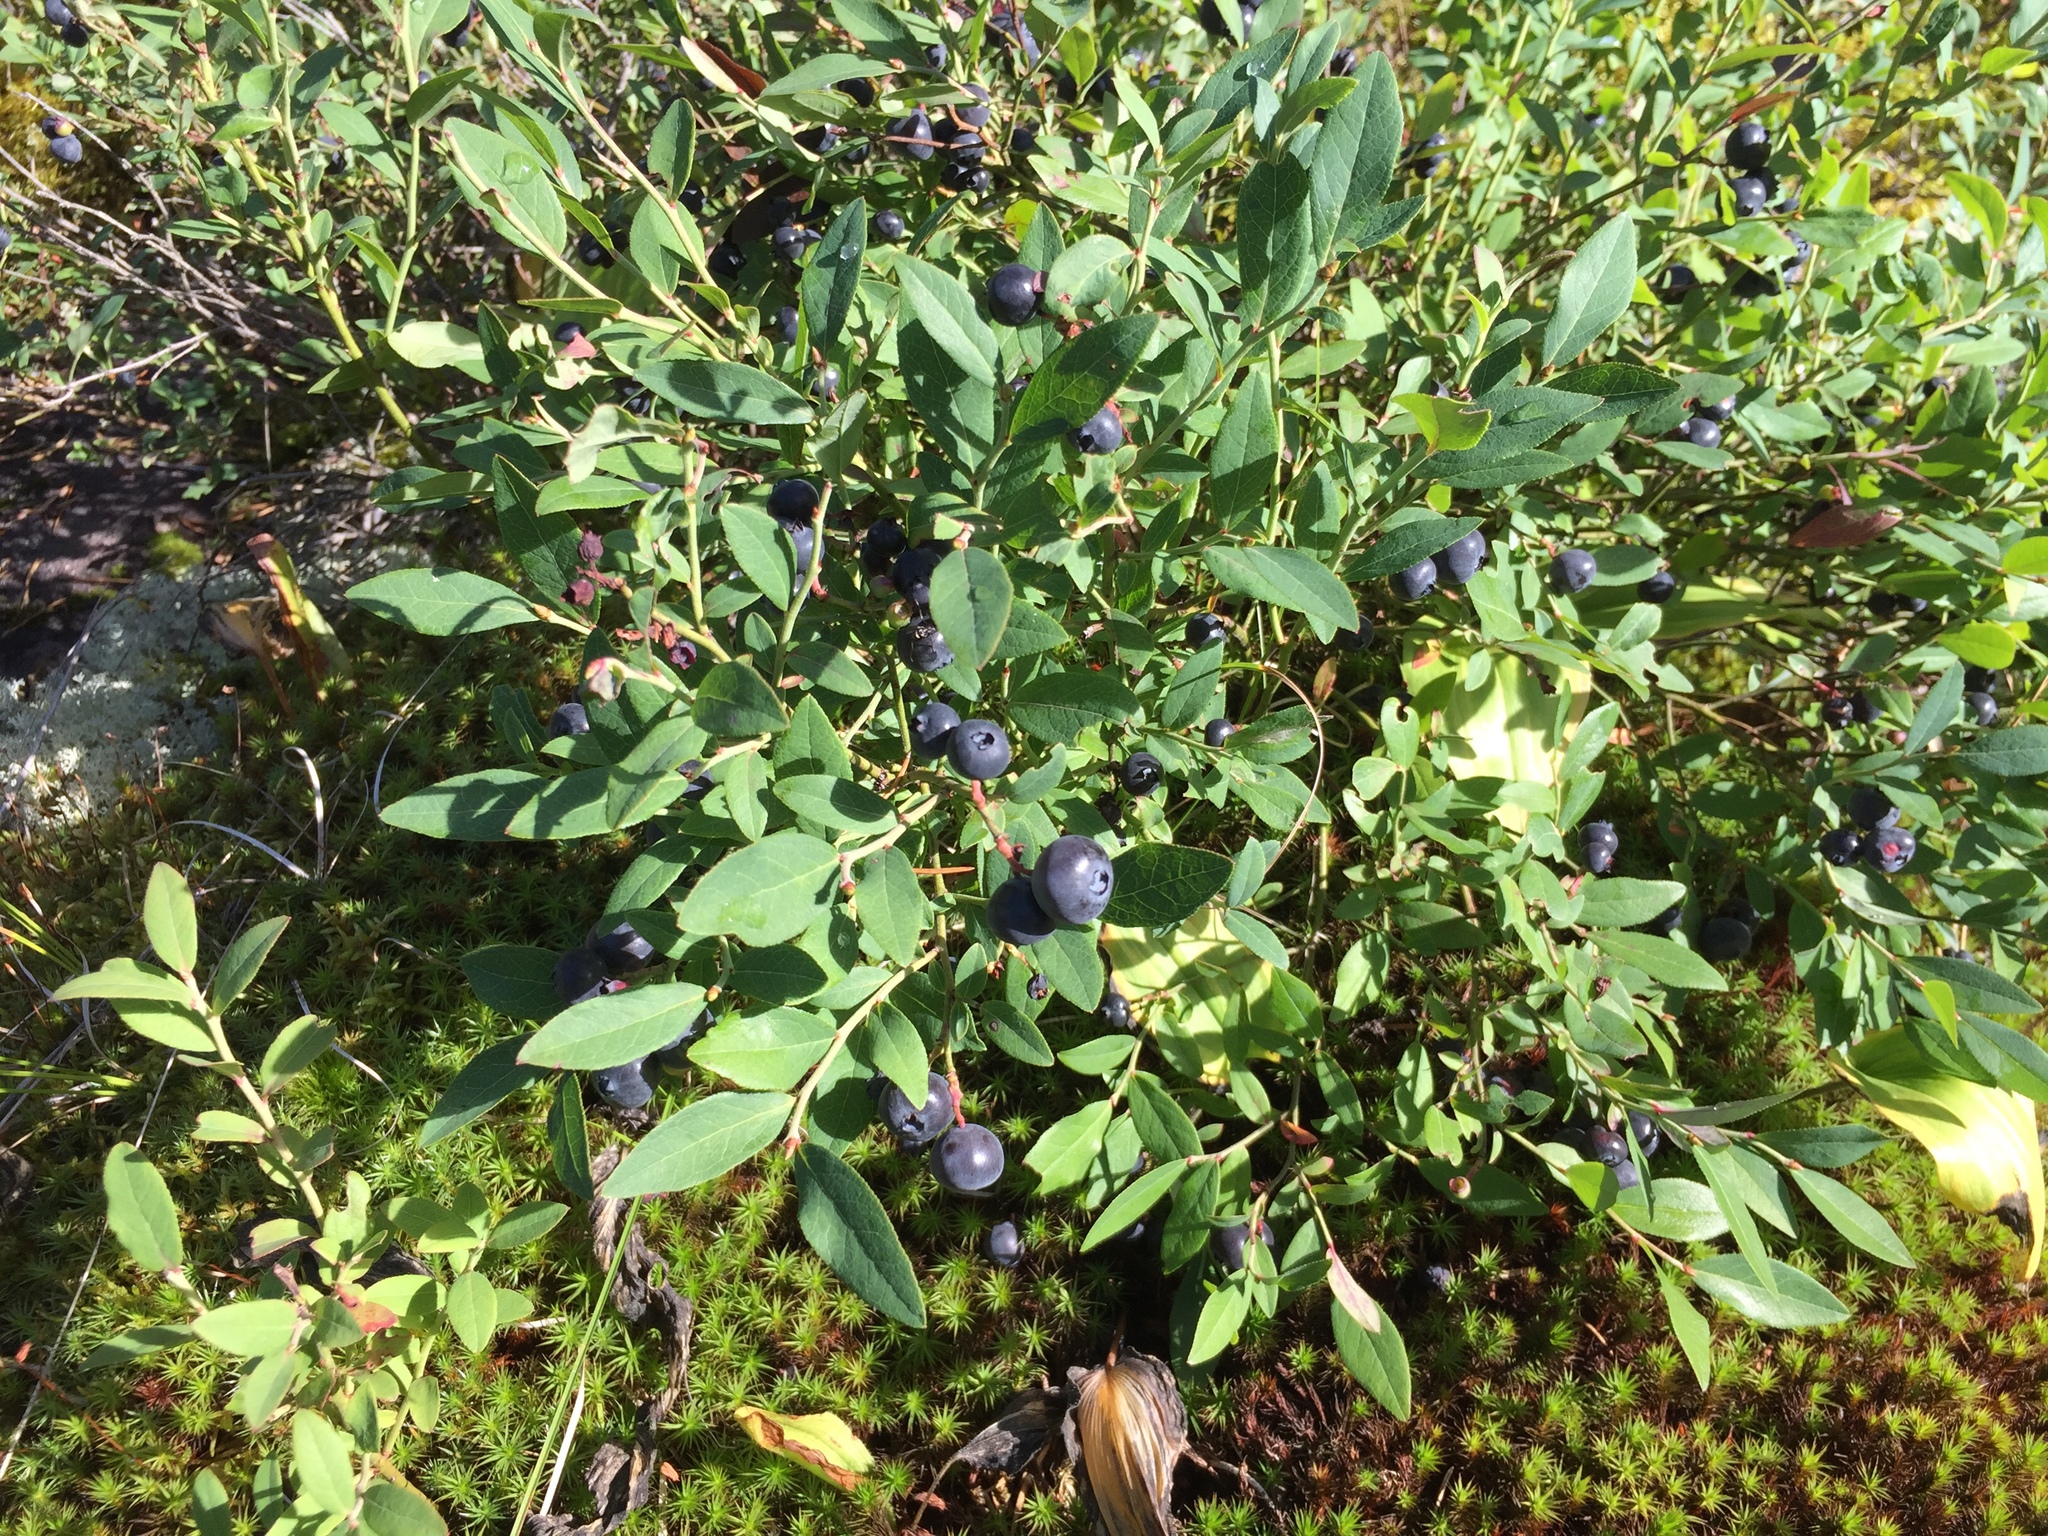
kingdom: Plantae
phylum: Tracheophyta
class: Magnoliopsida
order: Ericales
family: Ericaceae
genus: Vaccinium
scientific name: Vaccinium angustifolium
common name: Early lowbush blueberry
